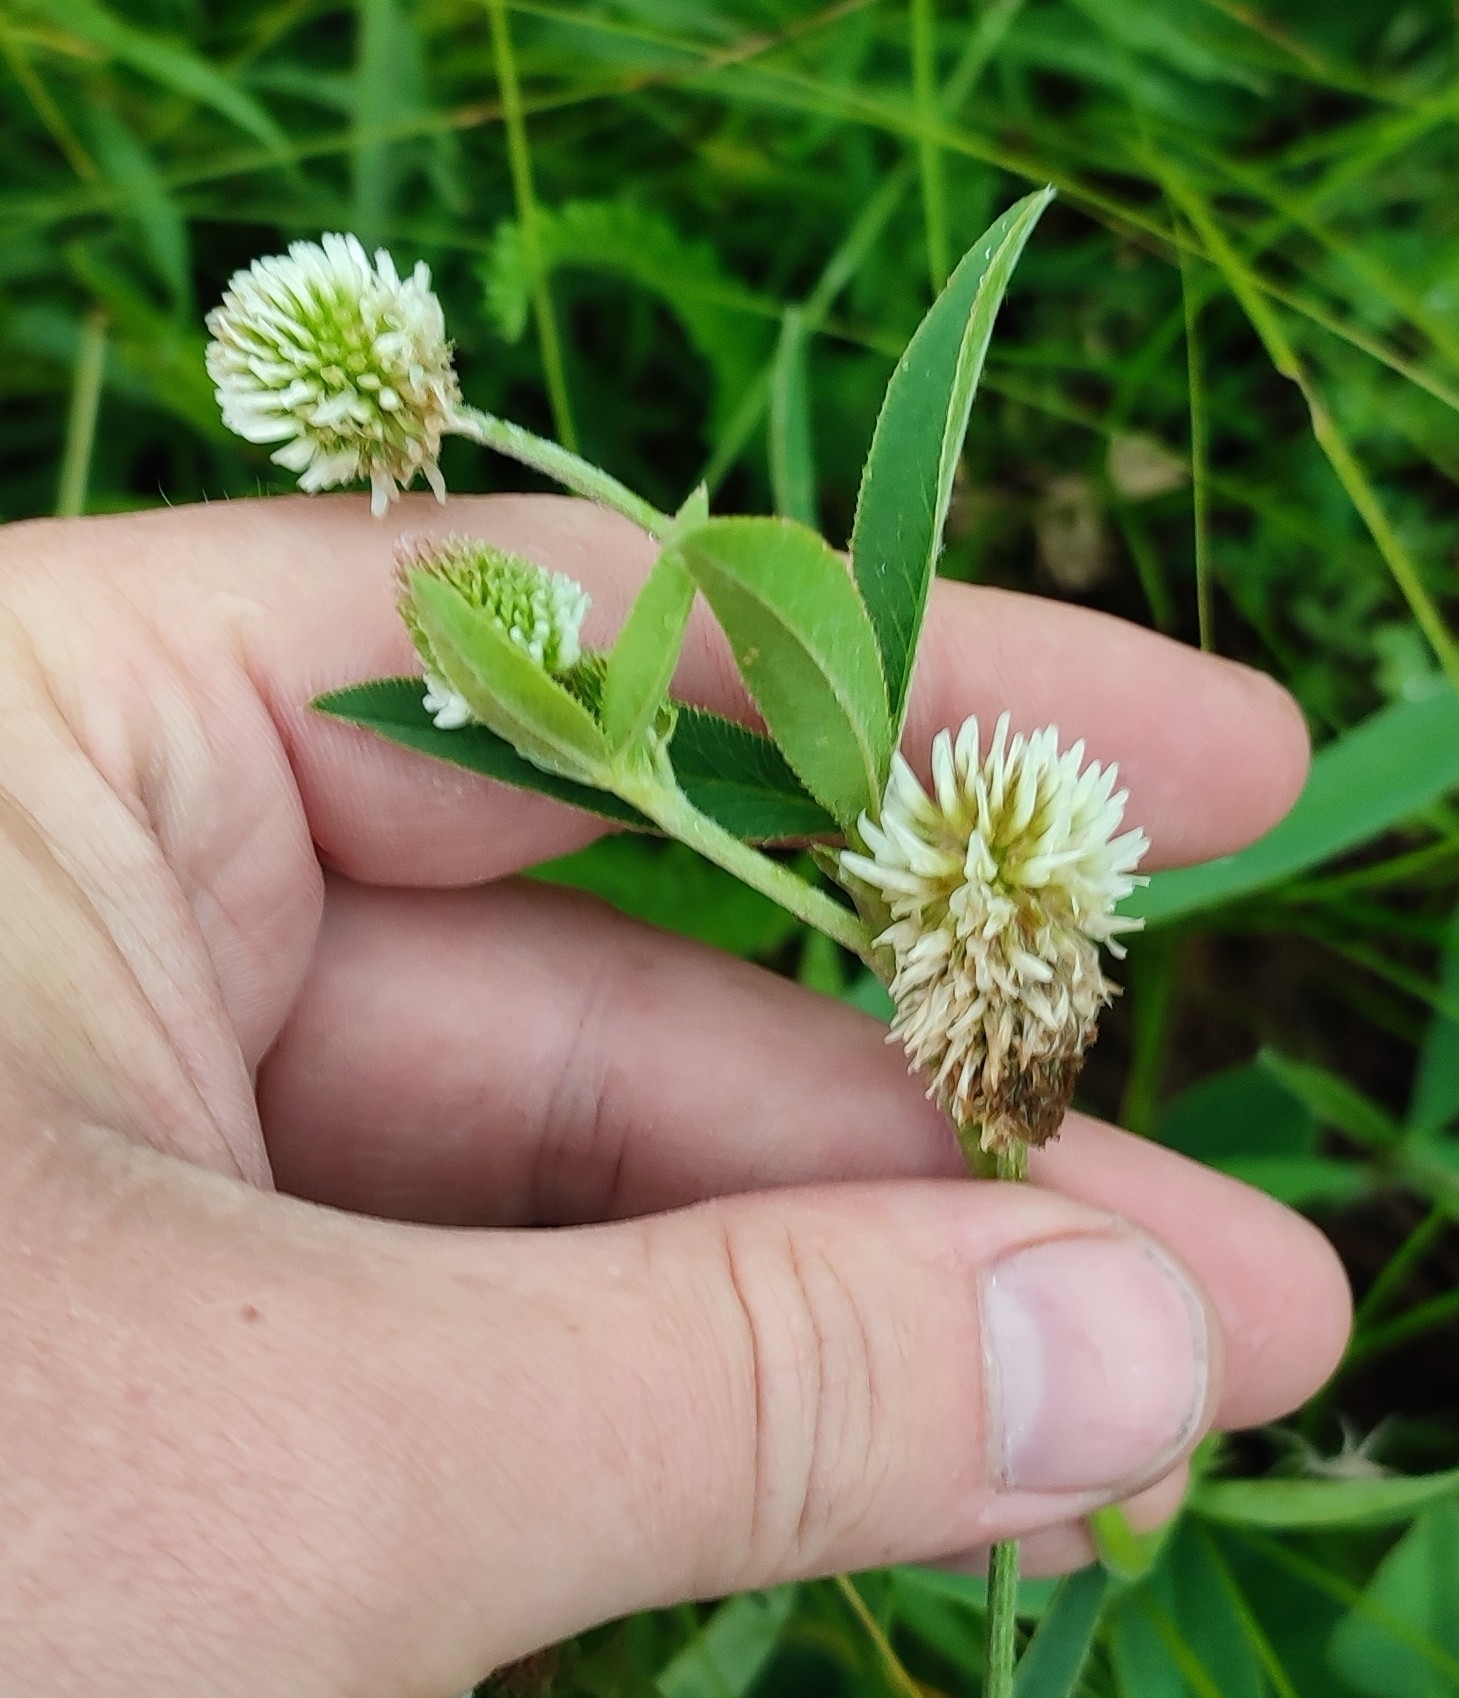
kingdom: Plantae
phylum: Tracheophyta
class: Magnoliopsida
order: Fabales
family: Fabaceae
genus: Trifolium
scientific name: Trifolium montanum
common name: Mountain clover
